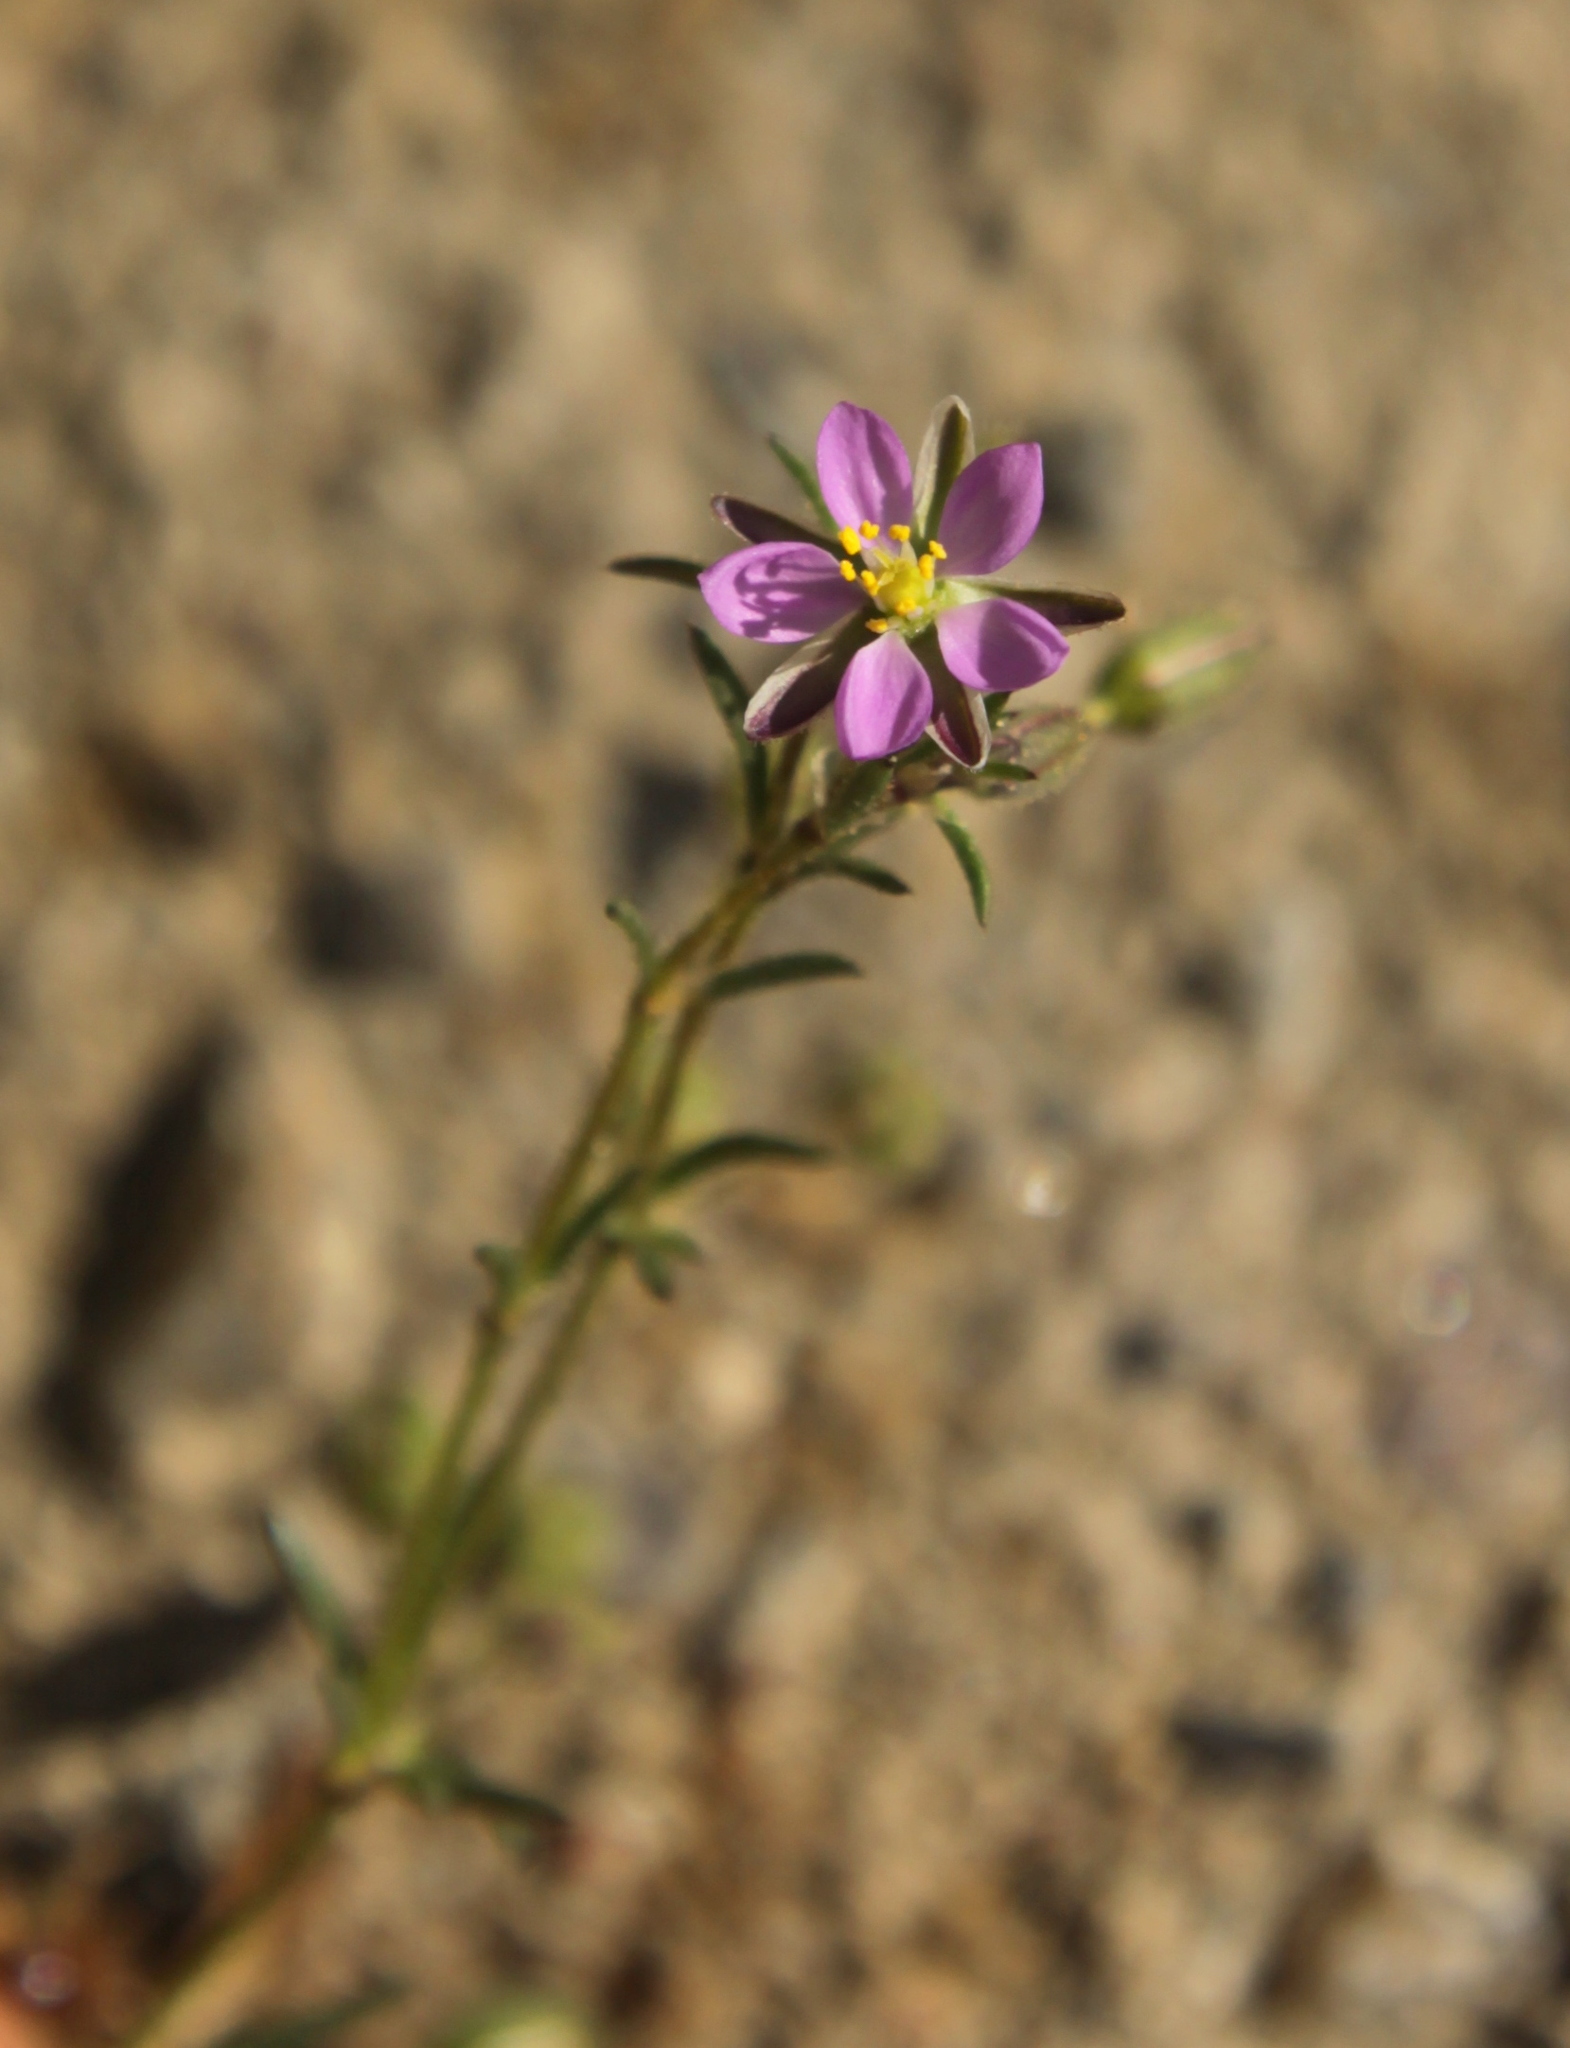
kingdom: Plantae
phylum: Tracheophyta
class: Magnoliopsida
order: Caryophyllales
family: Caryophyllaceae
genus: Spergularia
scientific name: Spergularia rubra
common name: Red sand-spurrey
